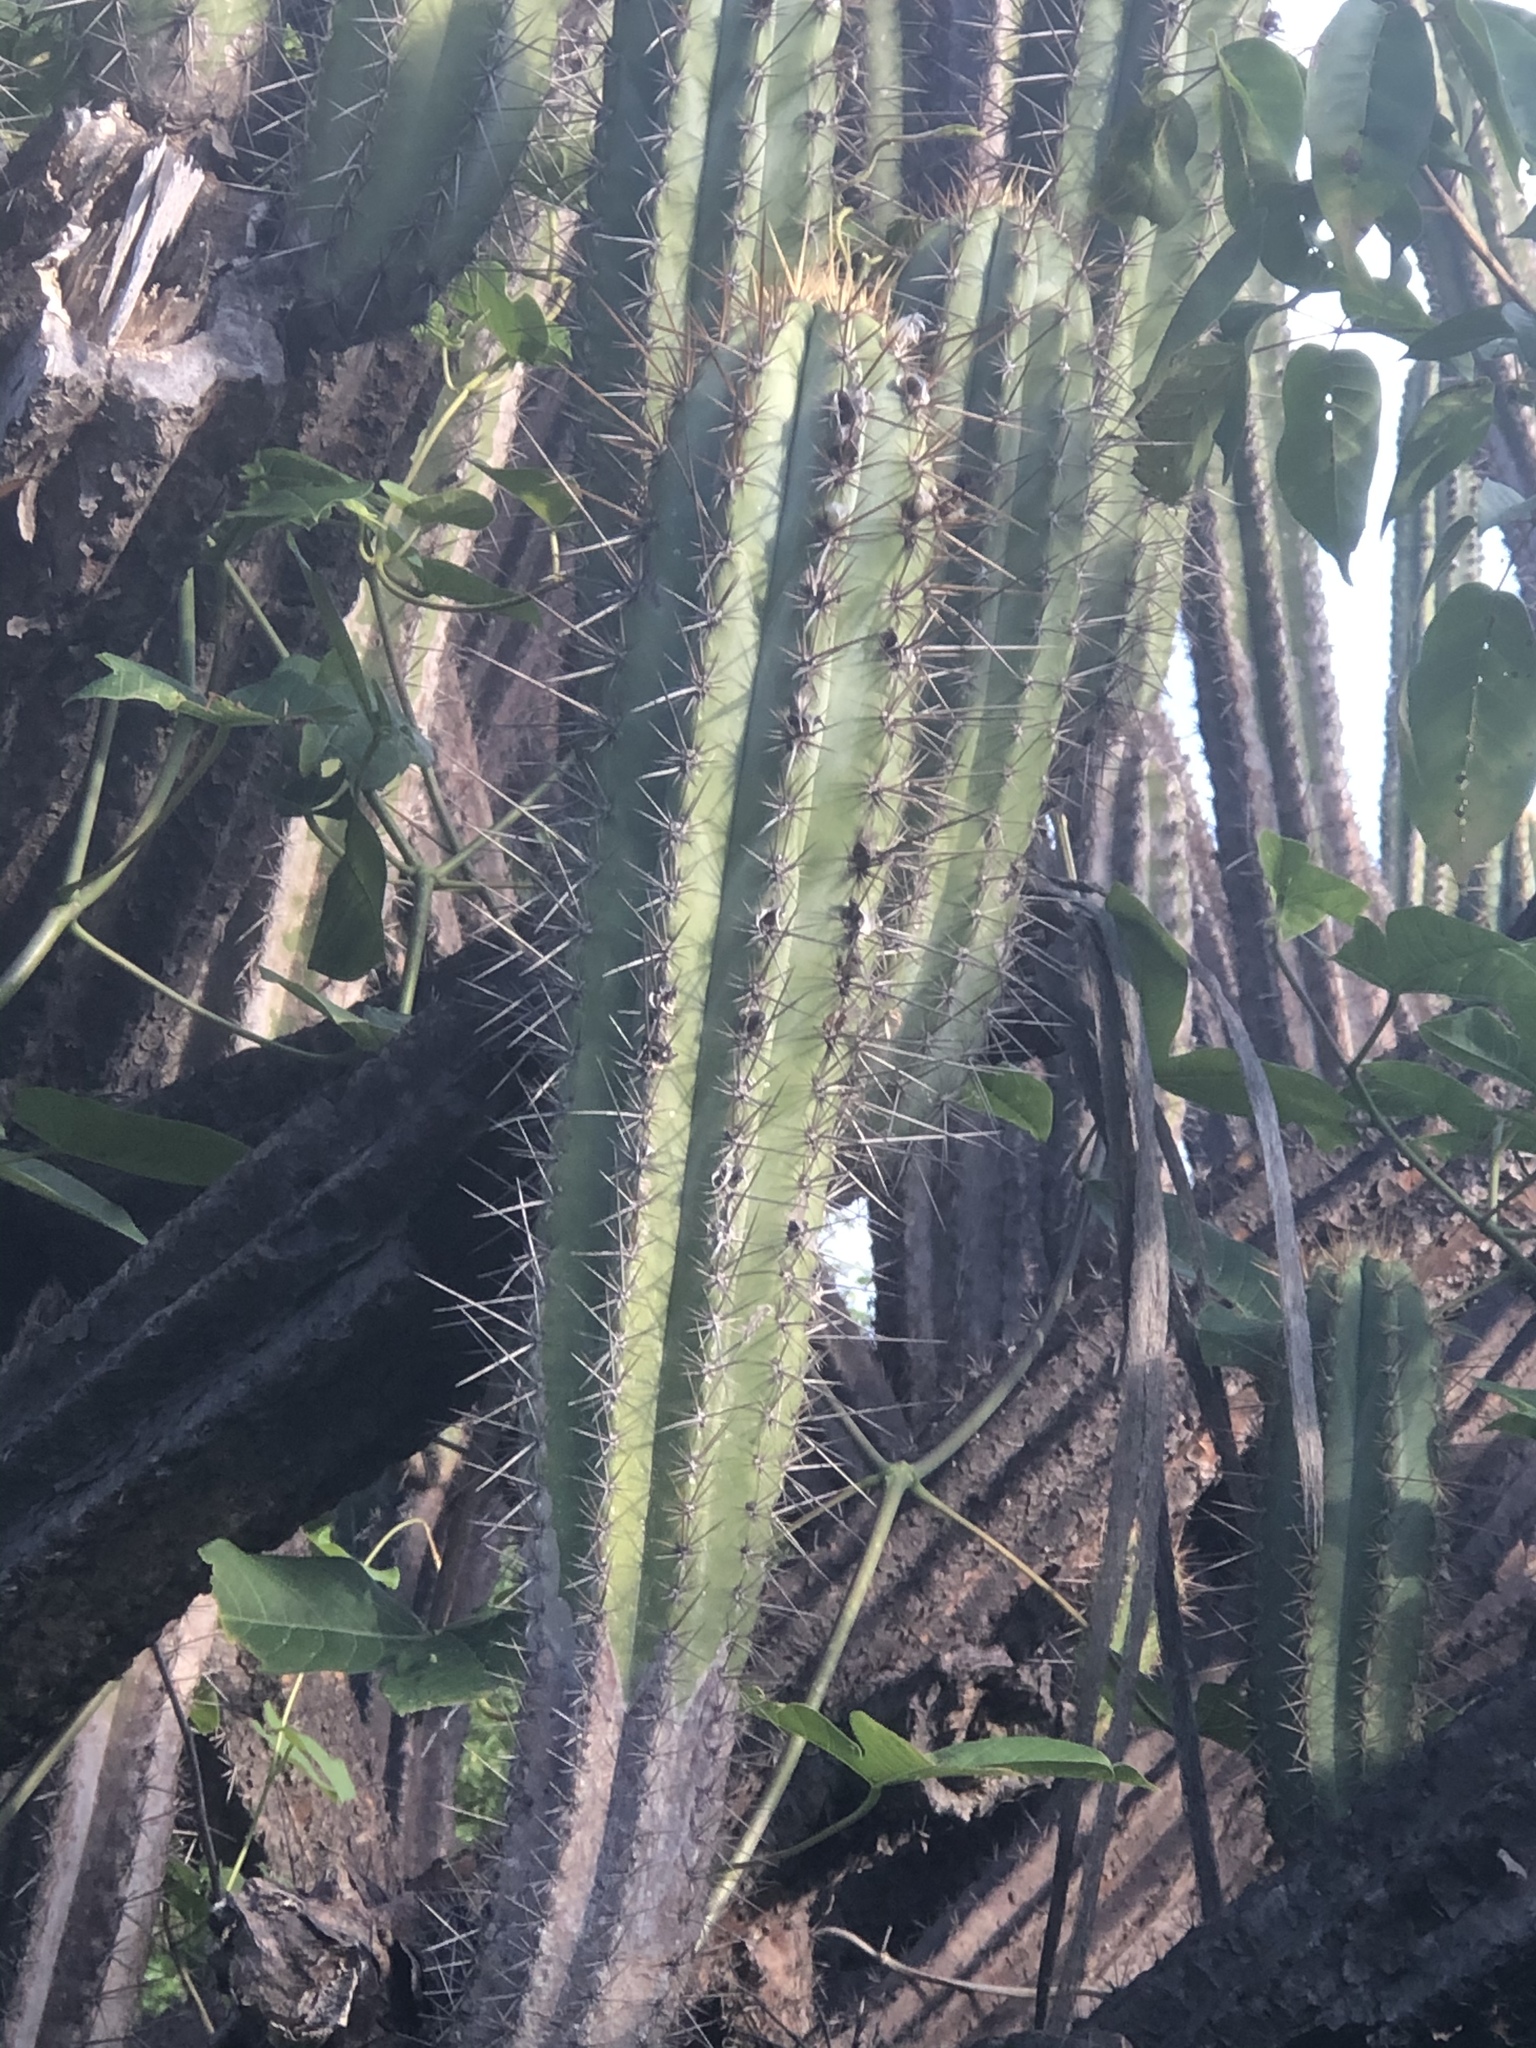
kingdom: Plantae
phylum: Tracheophyta
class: Magnoliopsida
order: Caryophyllales
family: Cactaceae
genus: Cereus
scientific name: Cereus jamacaru
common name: Queen-of-the-night
